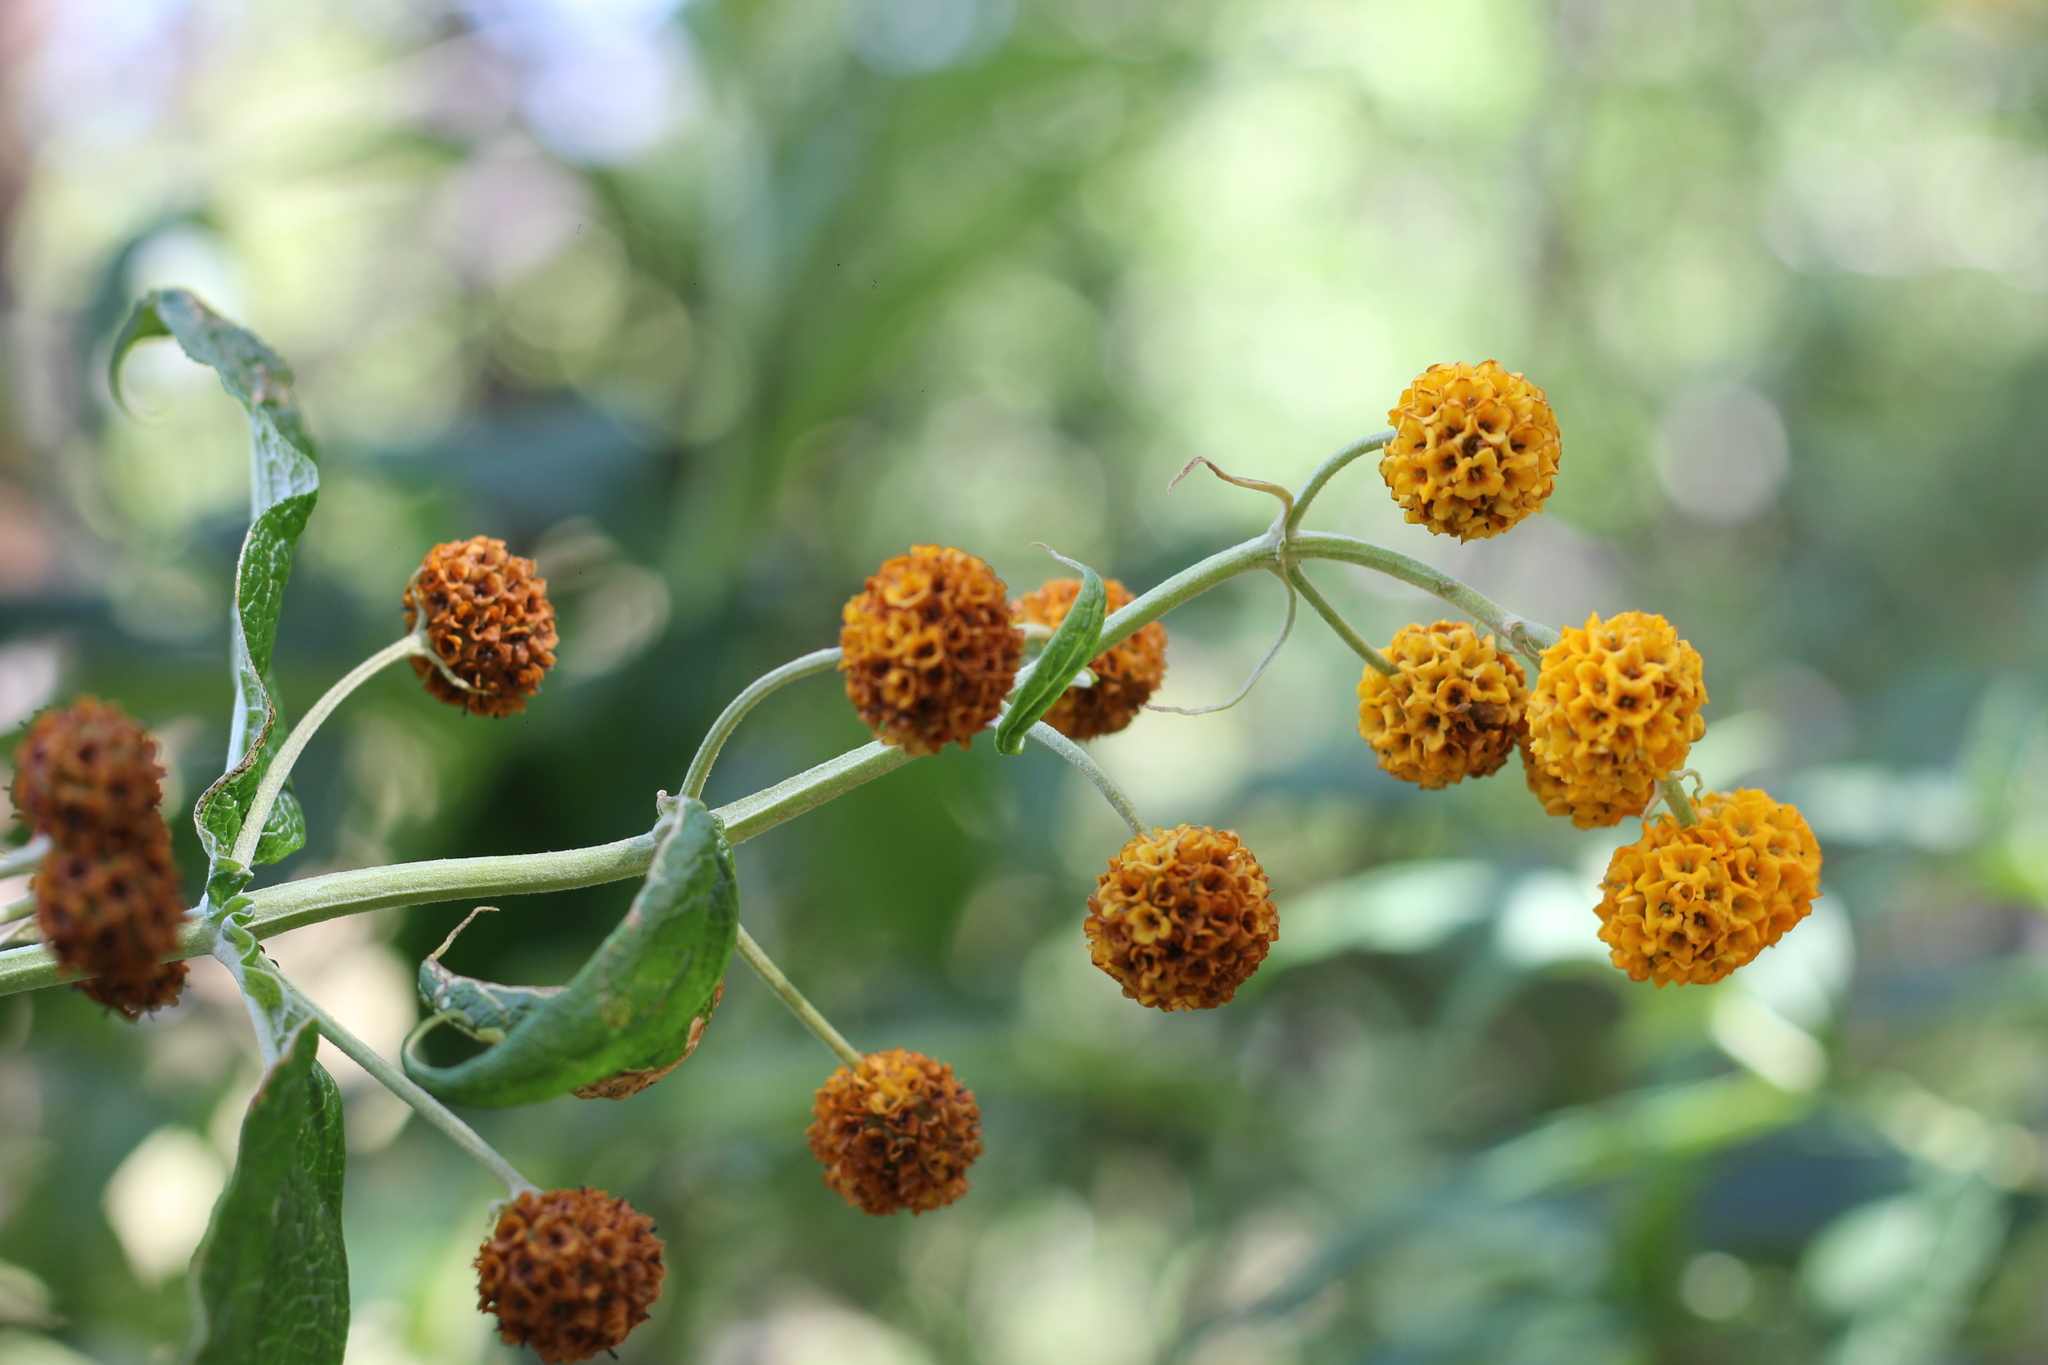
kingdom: Plantae
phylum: Tracheophyta
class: Magnoliopsida
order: Lamiales
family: Scrophulariaceae
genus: Buddleja
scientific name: Buddleja globosa
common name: Orange-ball-tree
